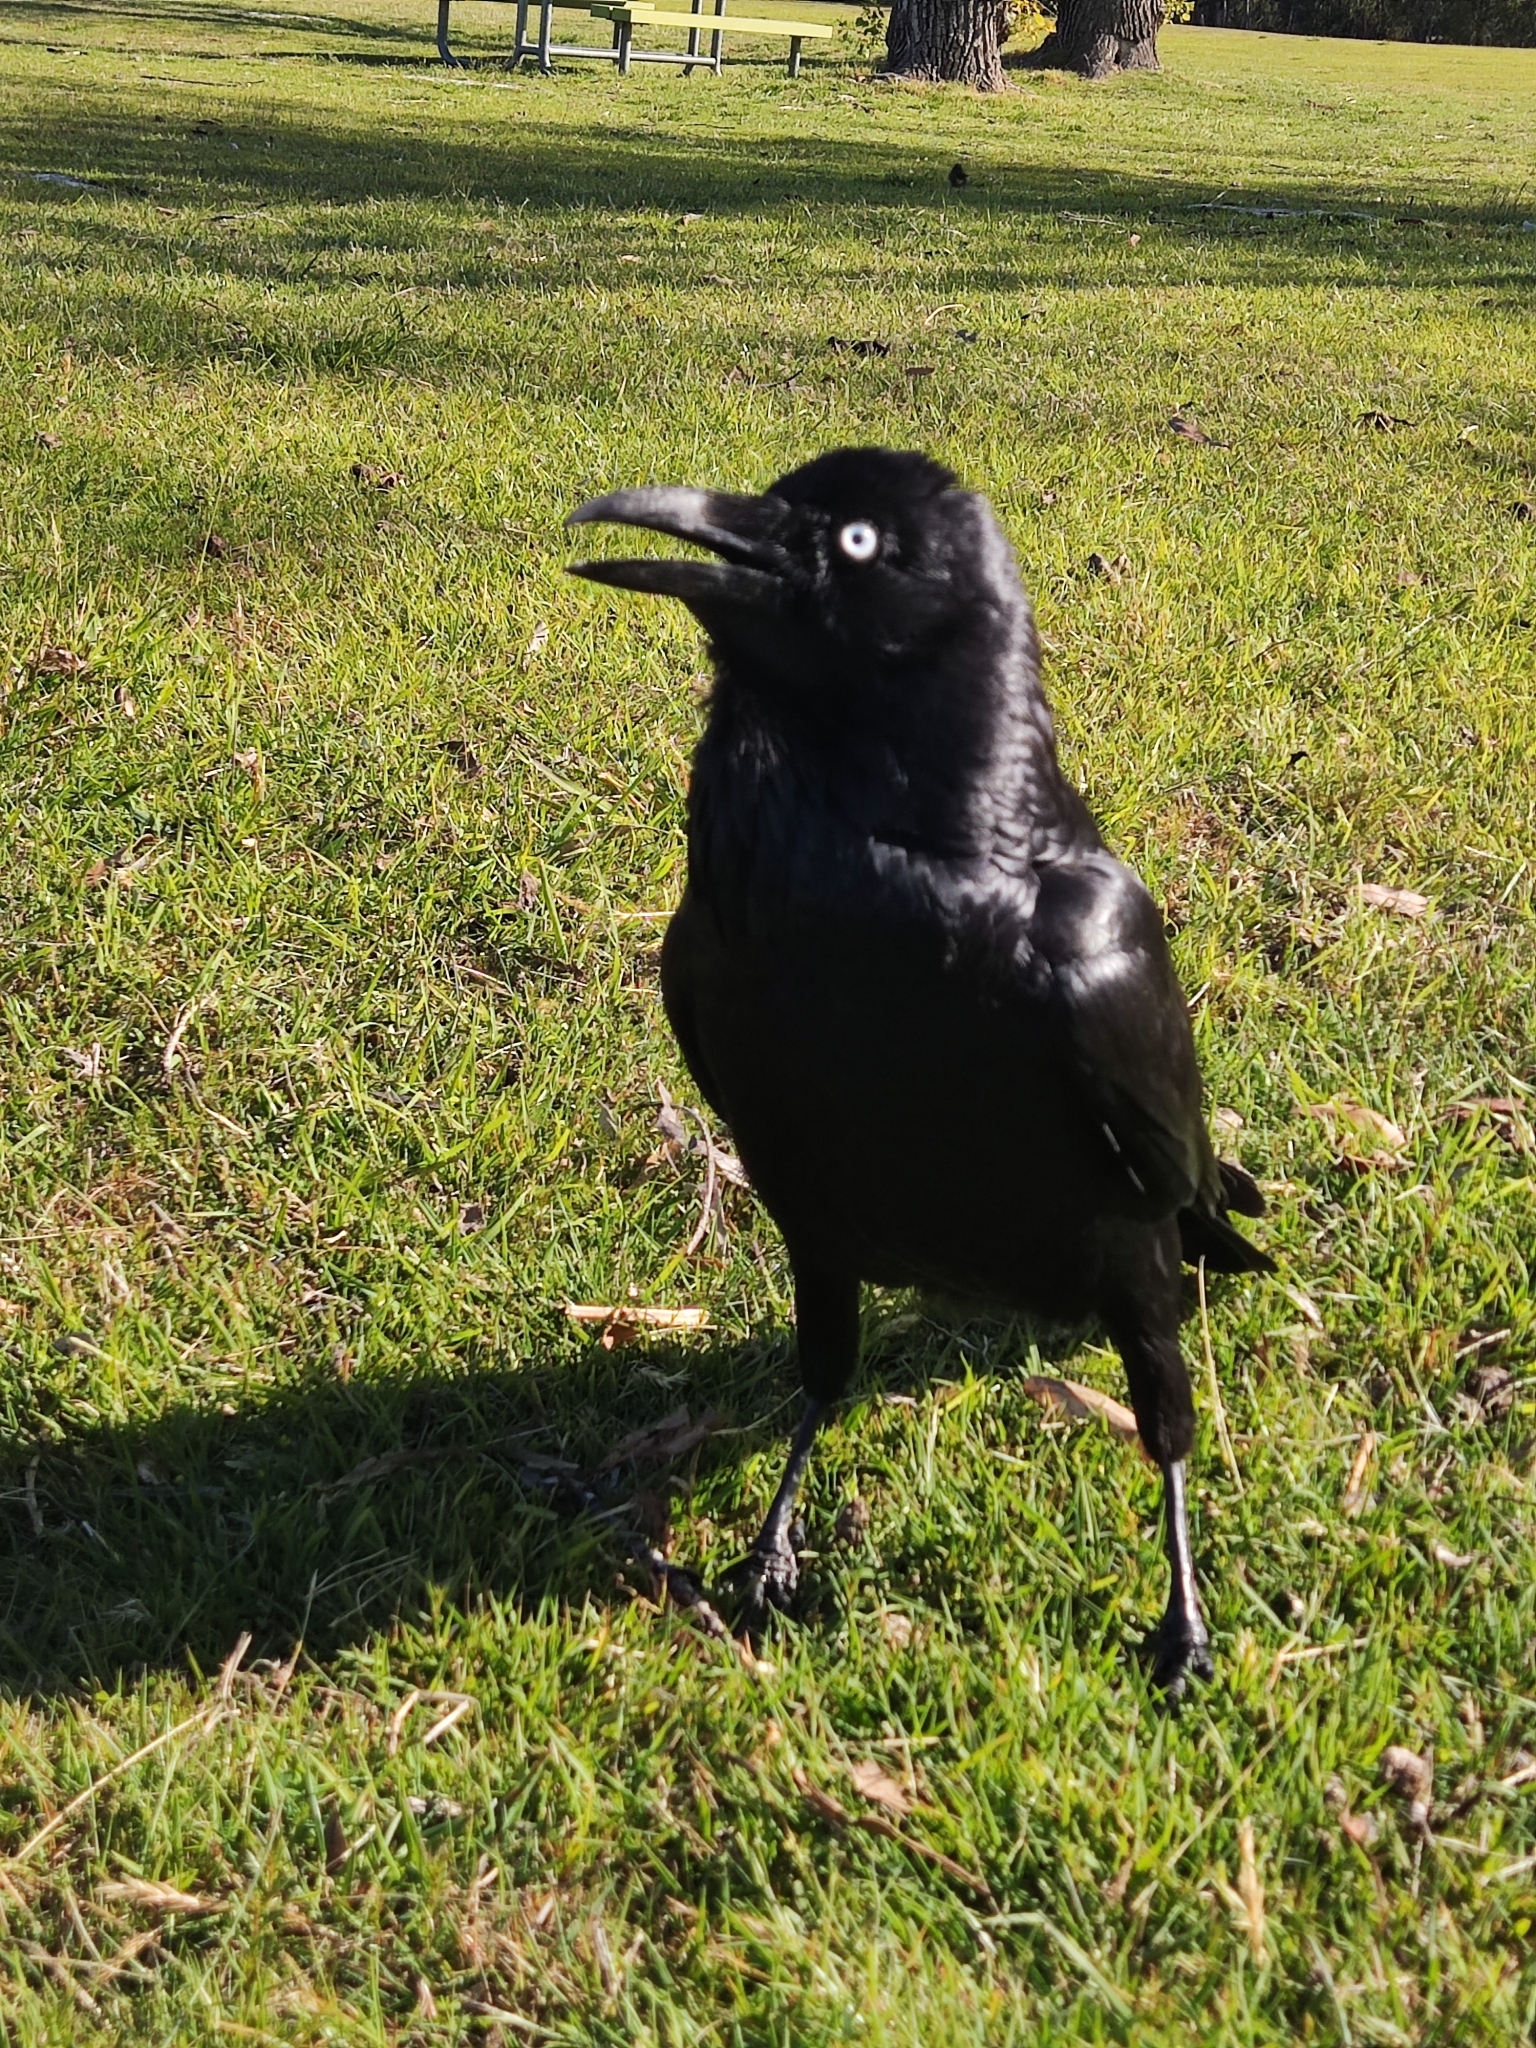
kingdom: Animalia
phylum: Chordata
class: Aves
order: Passeriformes
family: Corvidae
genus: Corvus
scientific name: Corvus coronoides
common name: Australian raven
